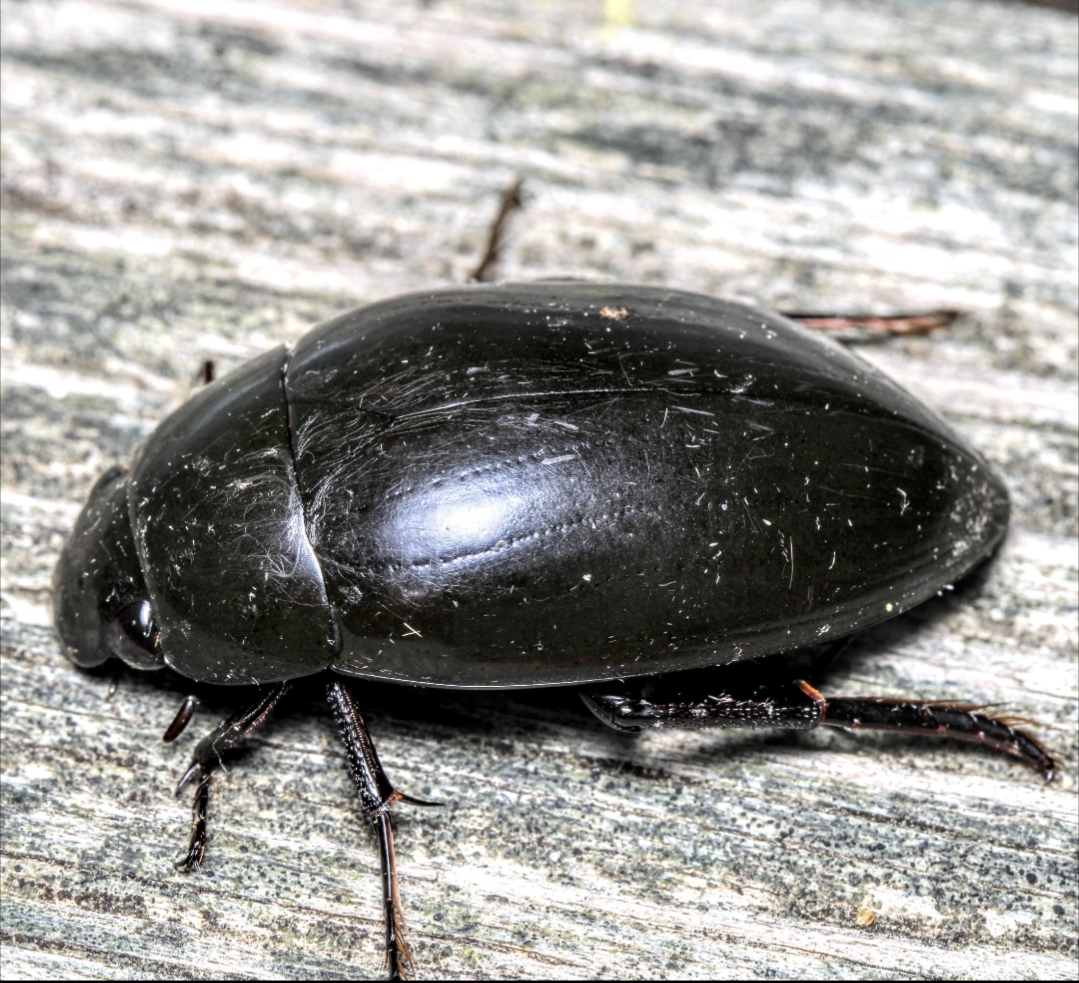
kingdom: Animalia
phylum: Arthropoda
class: Insecta
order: Coleoptera
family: Hydrophilidae
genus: Hydrophilus
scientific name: Hydrophilus ovatus
